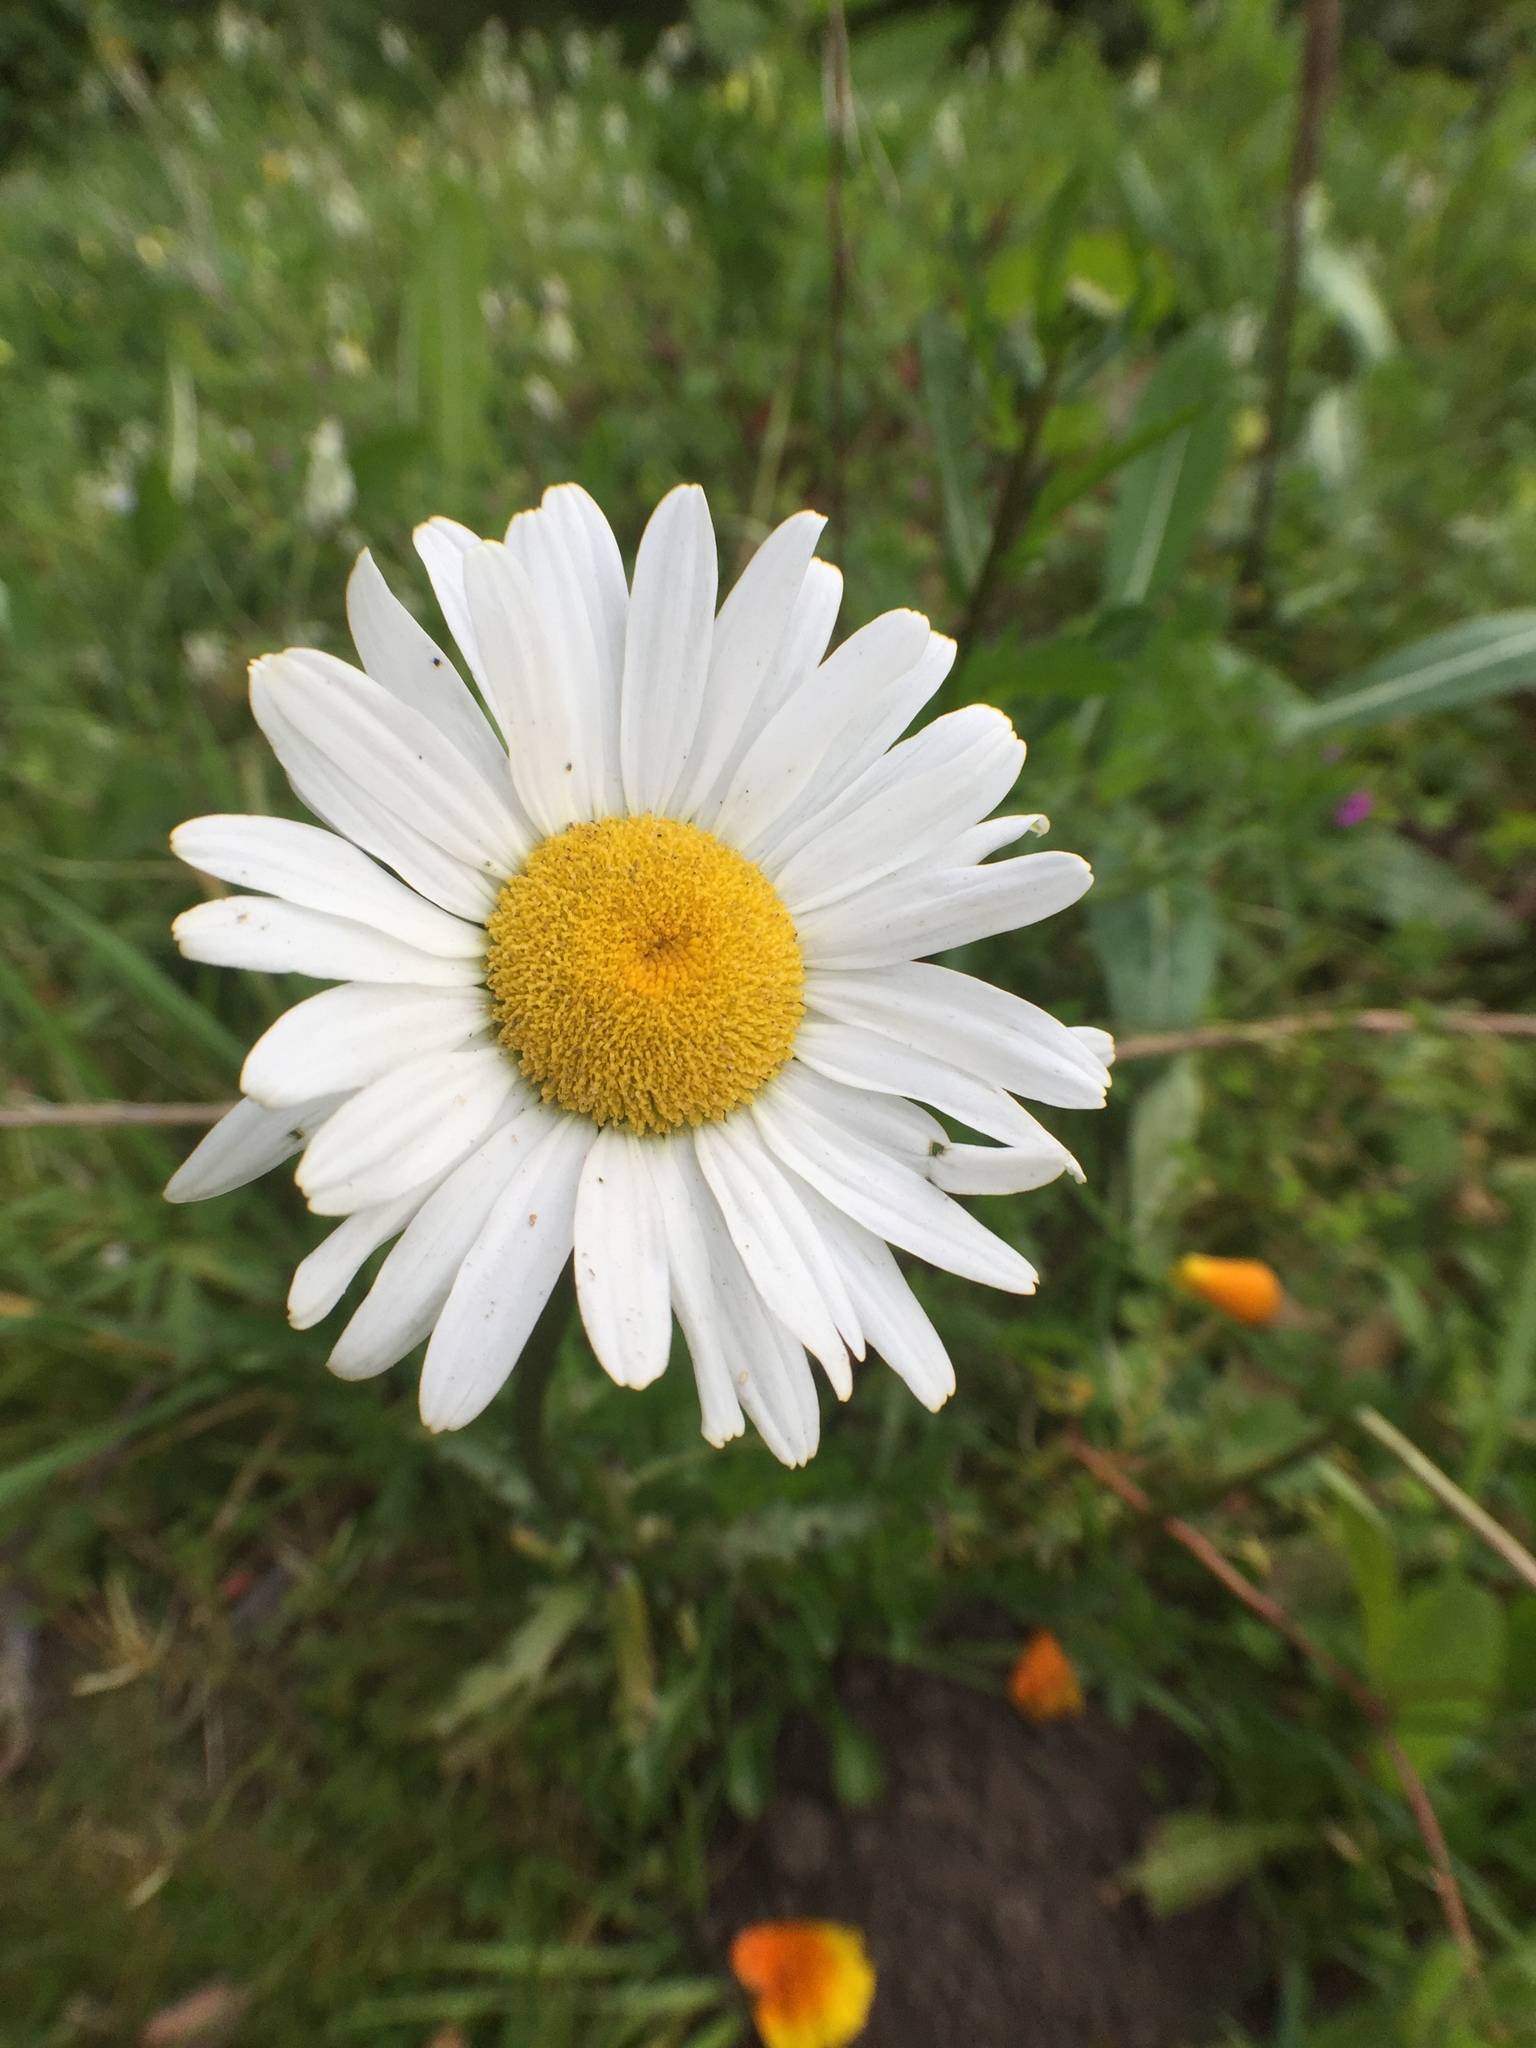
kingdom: Plantae
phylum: Tracheophyta
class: Magnoliopsida
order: Asterales
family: Asteraceae
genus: Leucanthemum
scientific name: Leucanthemum vulgare
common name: Oxeye daisy
